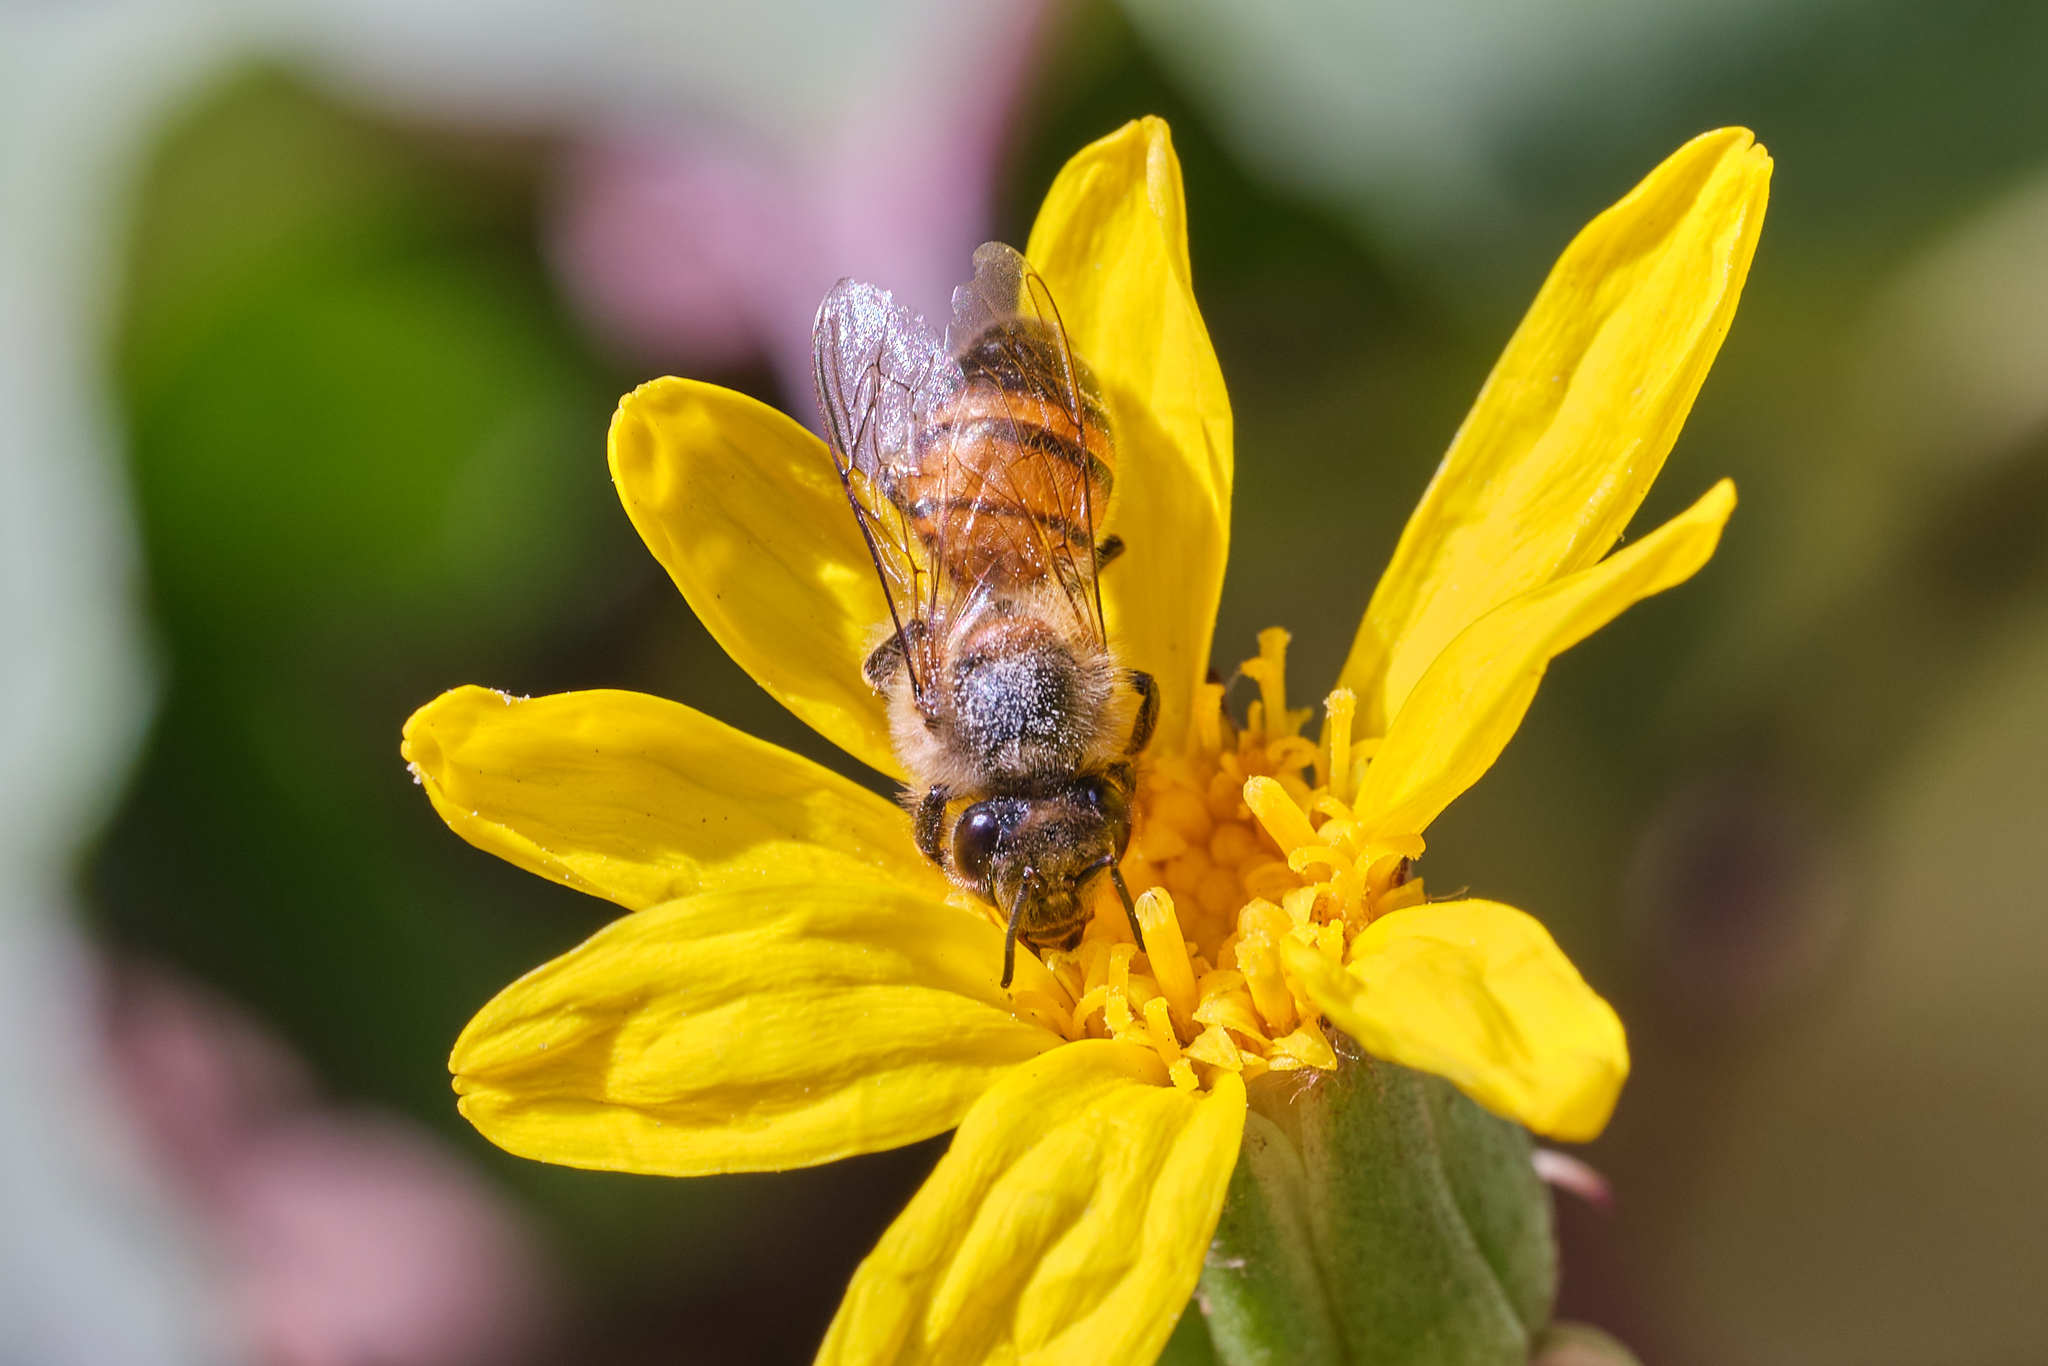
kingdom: Animalia
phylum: Arthropoda
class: Insecta
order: Hymenoptera
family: Apidae
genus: Apis
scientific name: Apis mellifera
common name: Honey bee
